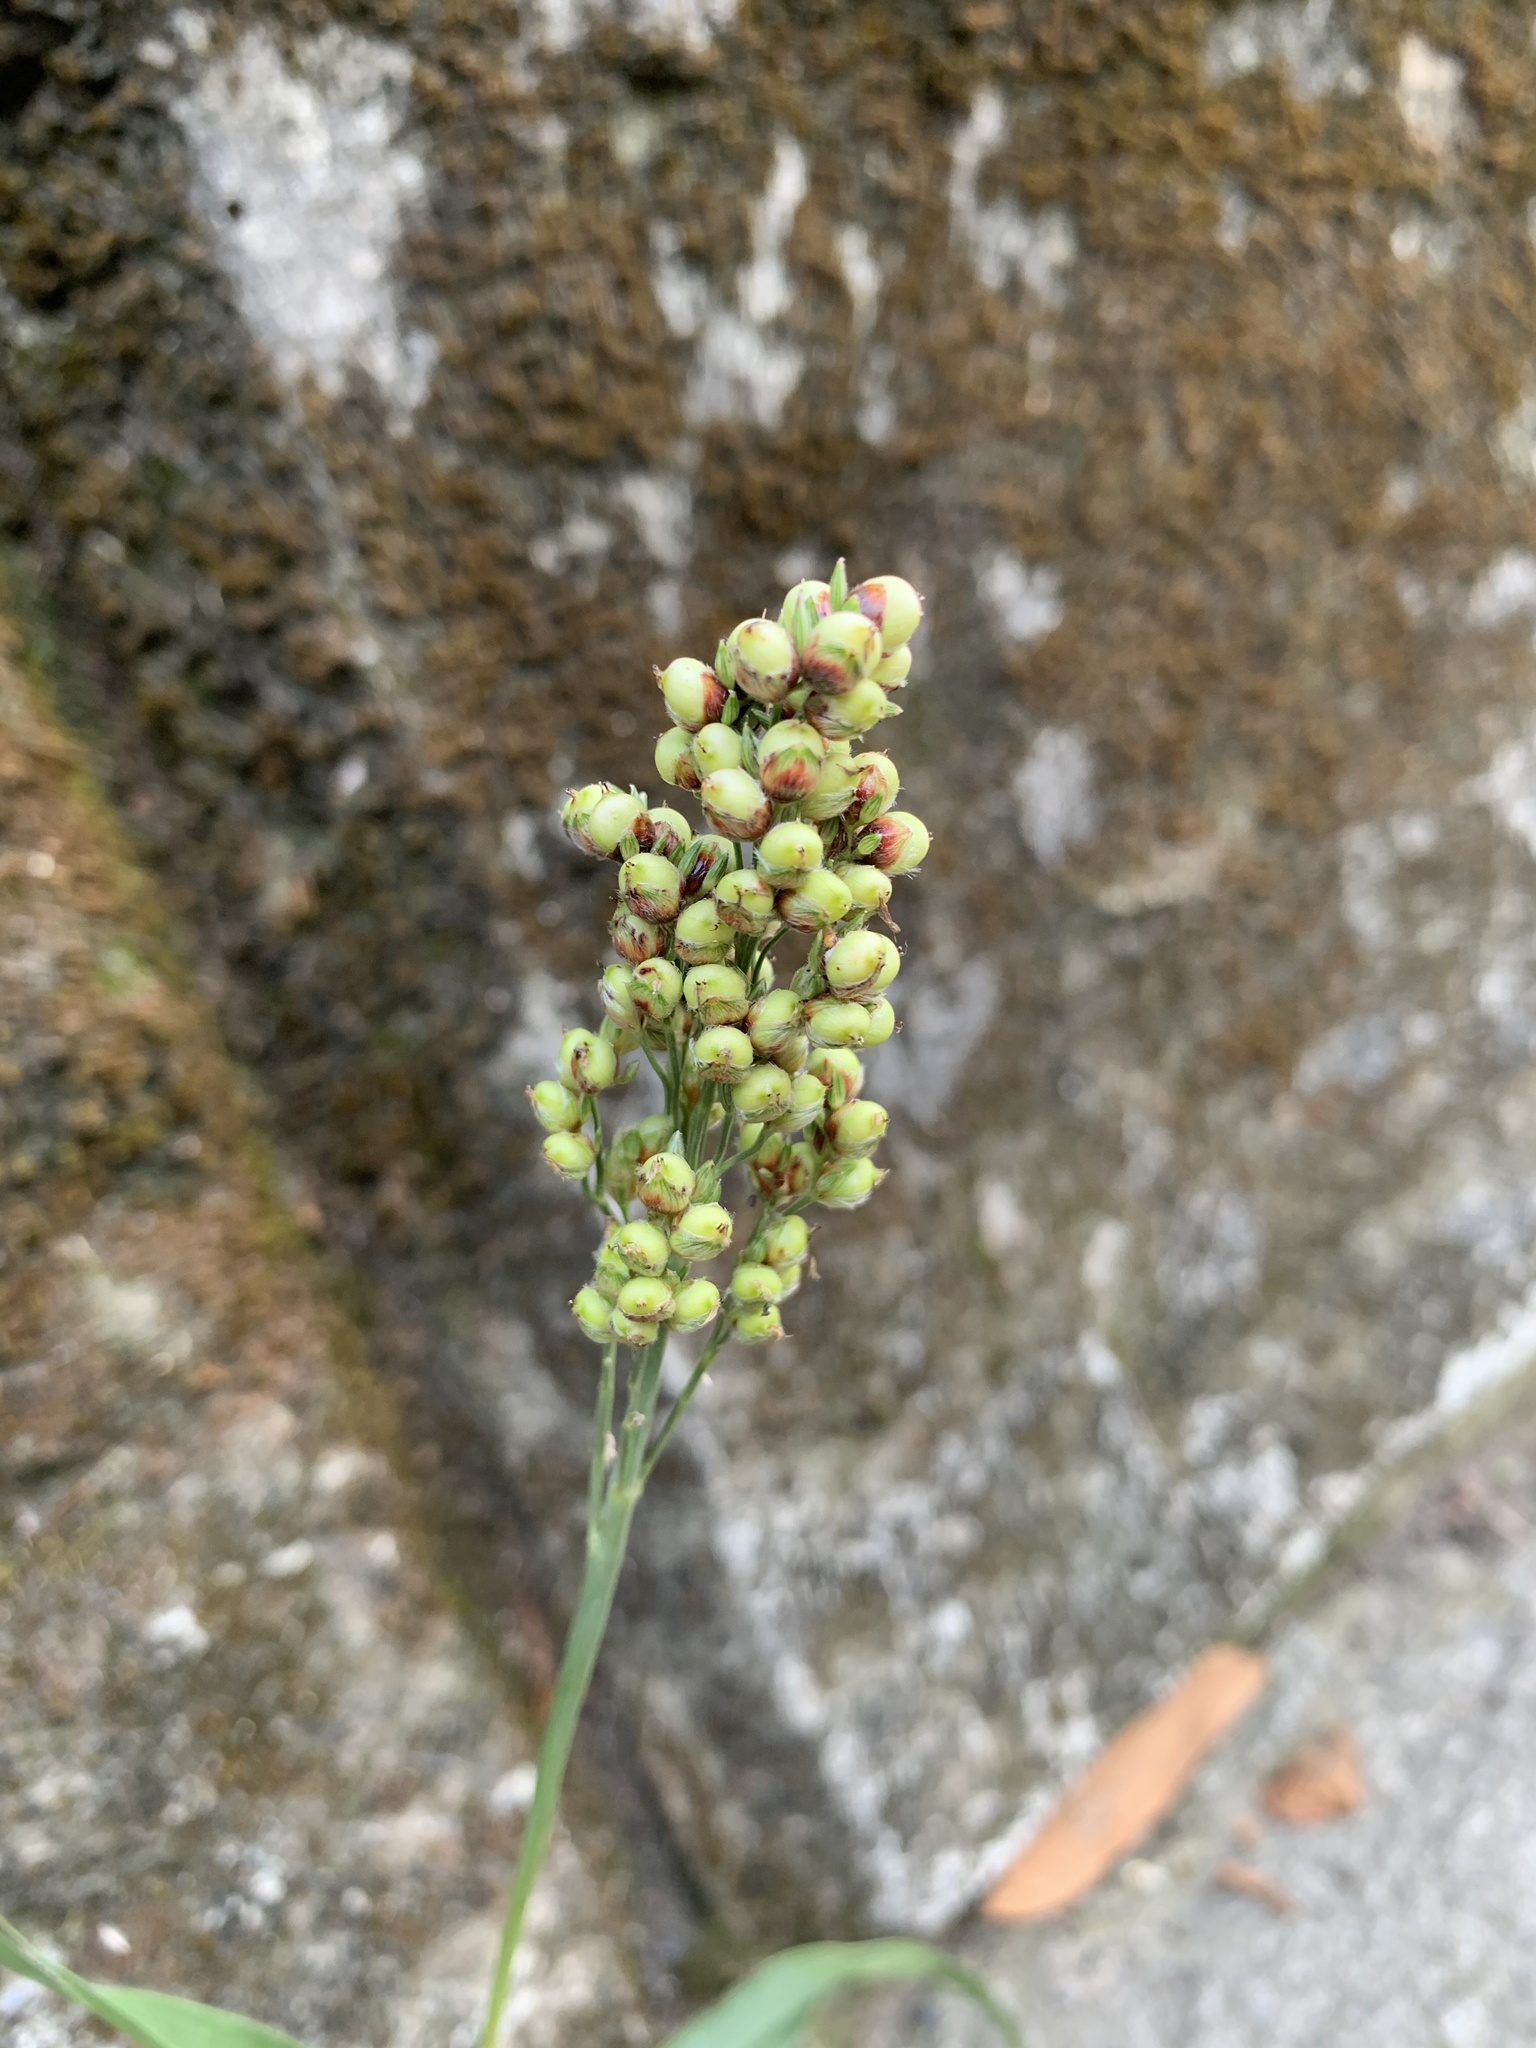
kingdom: Plantae
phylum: Tracheophyta
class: Liliopsida
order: Poales
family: Poaceae
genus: Sorghum
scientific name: Sorghum bicolor
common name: Sorghum
